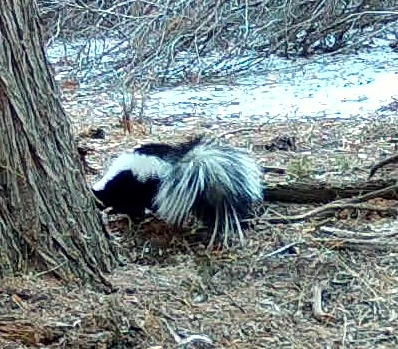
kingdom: Animalia
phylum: Chordata
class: Mammalia
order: Carnivora
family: Mephitidae
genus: Mephitis
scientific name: Mephitis mephitis
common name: Striped skunk
